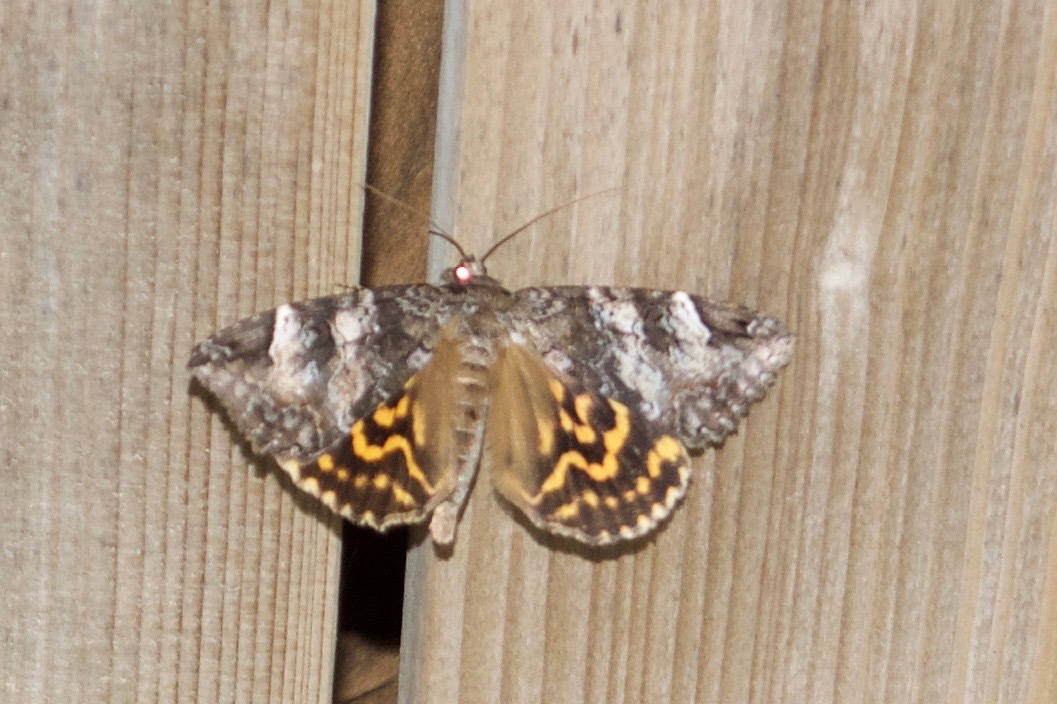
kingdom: Animalia
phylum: Arthropoda
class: Insecta
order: Lepidoptera
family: Erebidae
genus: Euparthenos
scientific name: Euparthenos nubilis
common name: Locust underwing
